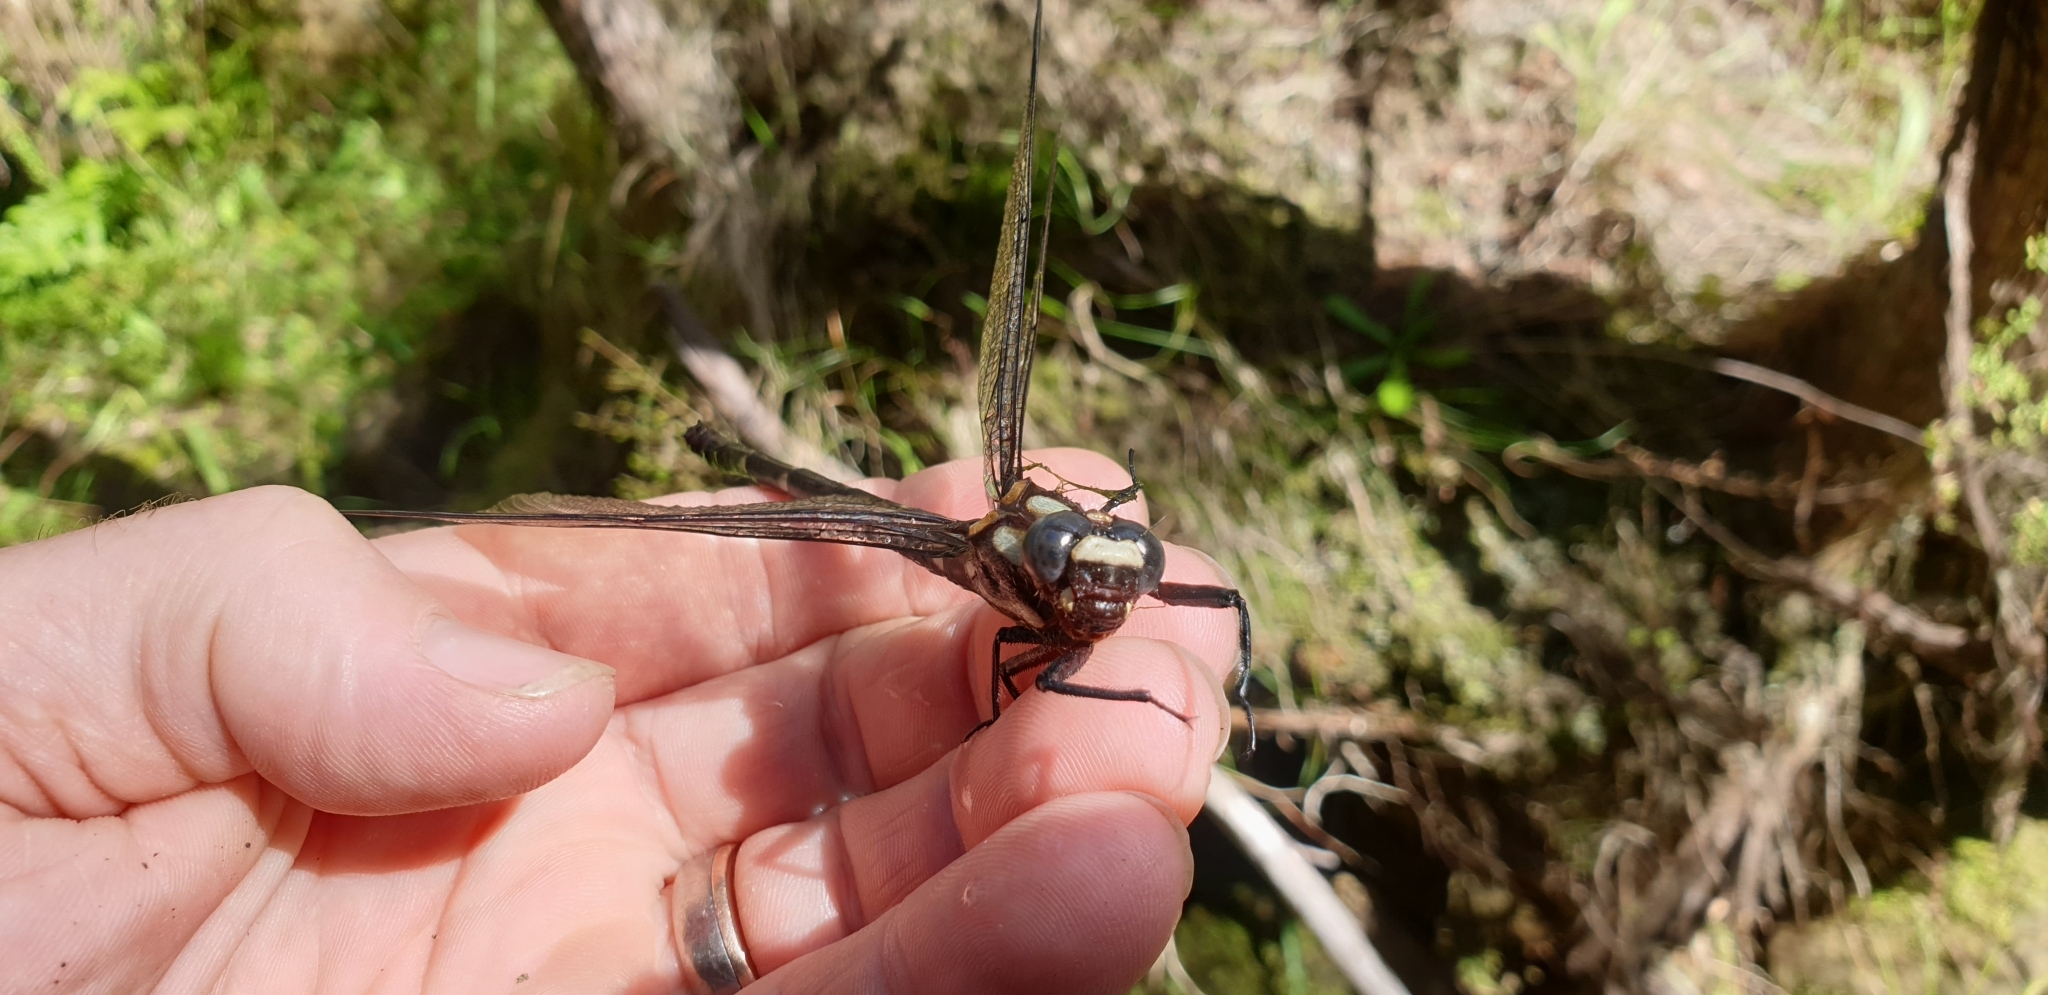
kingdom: Animalia
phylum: Arthropoda
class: Insecta
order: Odonata
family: Petaluridae
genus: Uropetala
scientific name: Uropetala carovei
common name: Bush giant dragonfly
